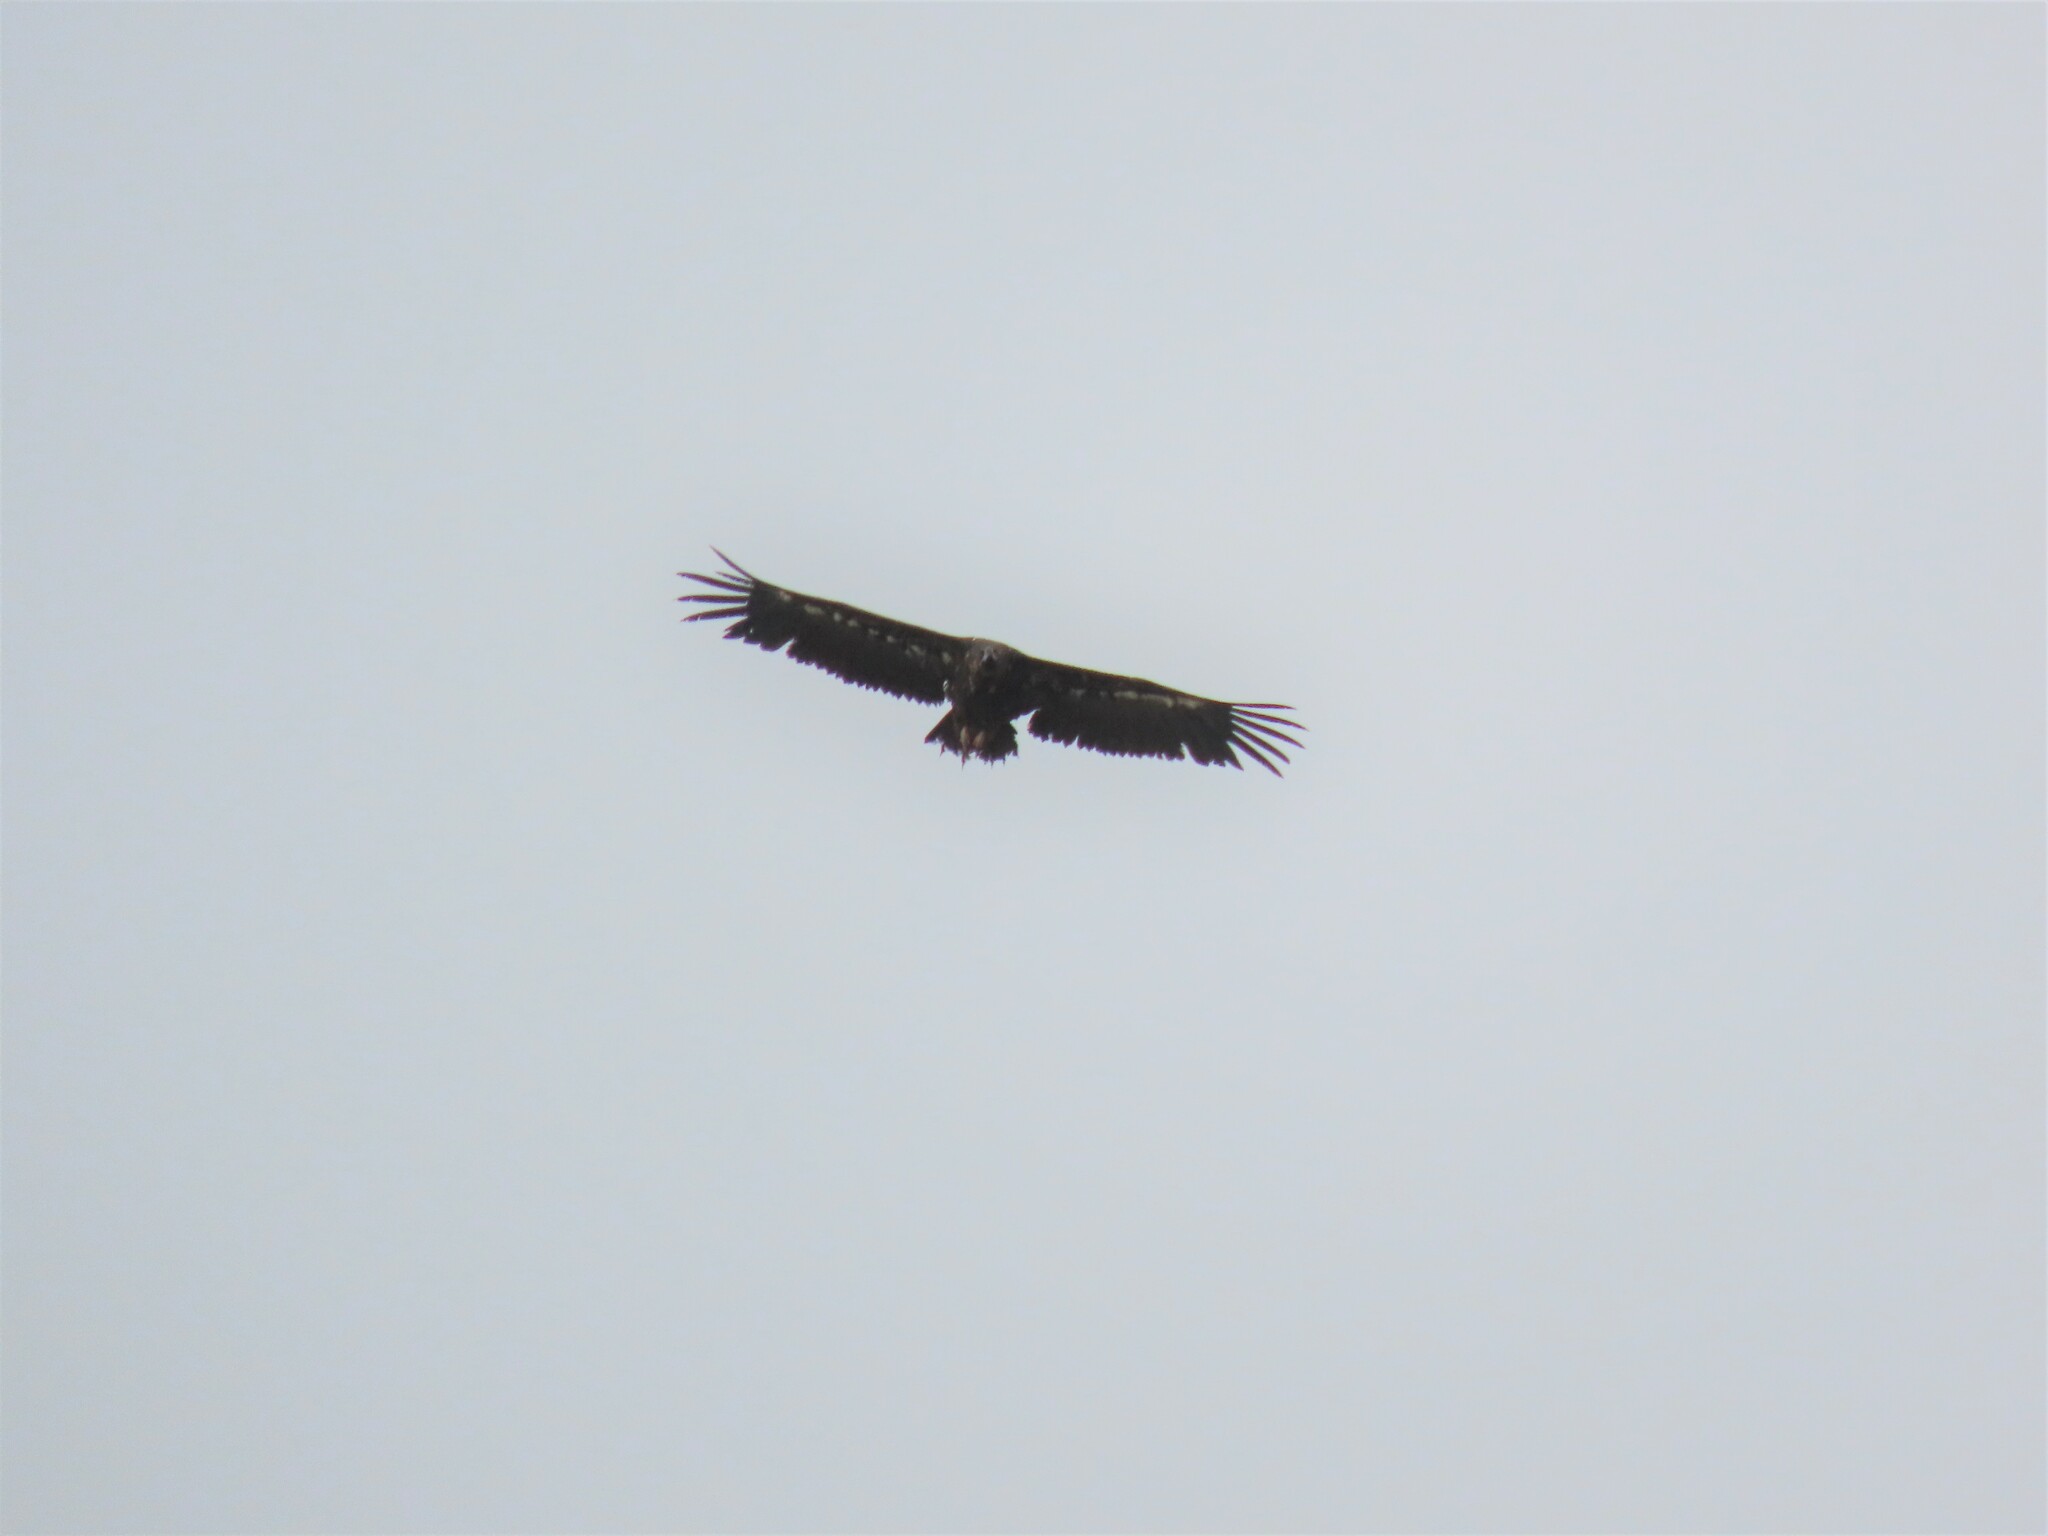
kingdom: Animalia
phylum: Chordata
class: Aves
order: Accipitriformes
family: Accipitridae
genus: Aegypius
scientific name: Aegypius monachus
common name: Cinereous vulture
